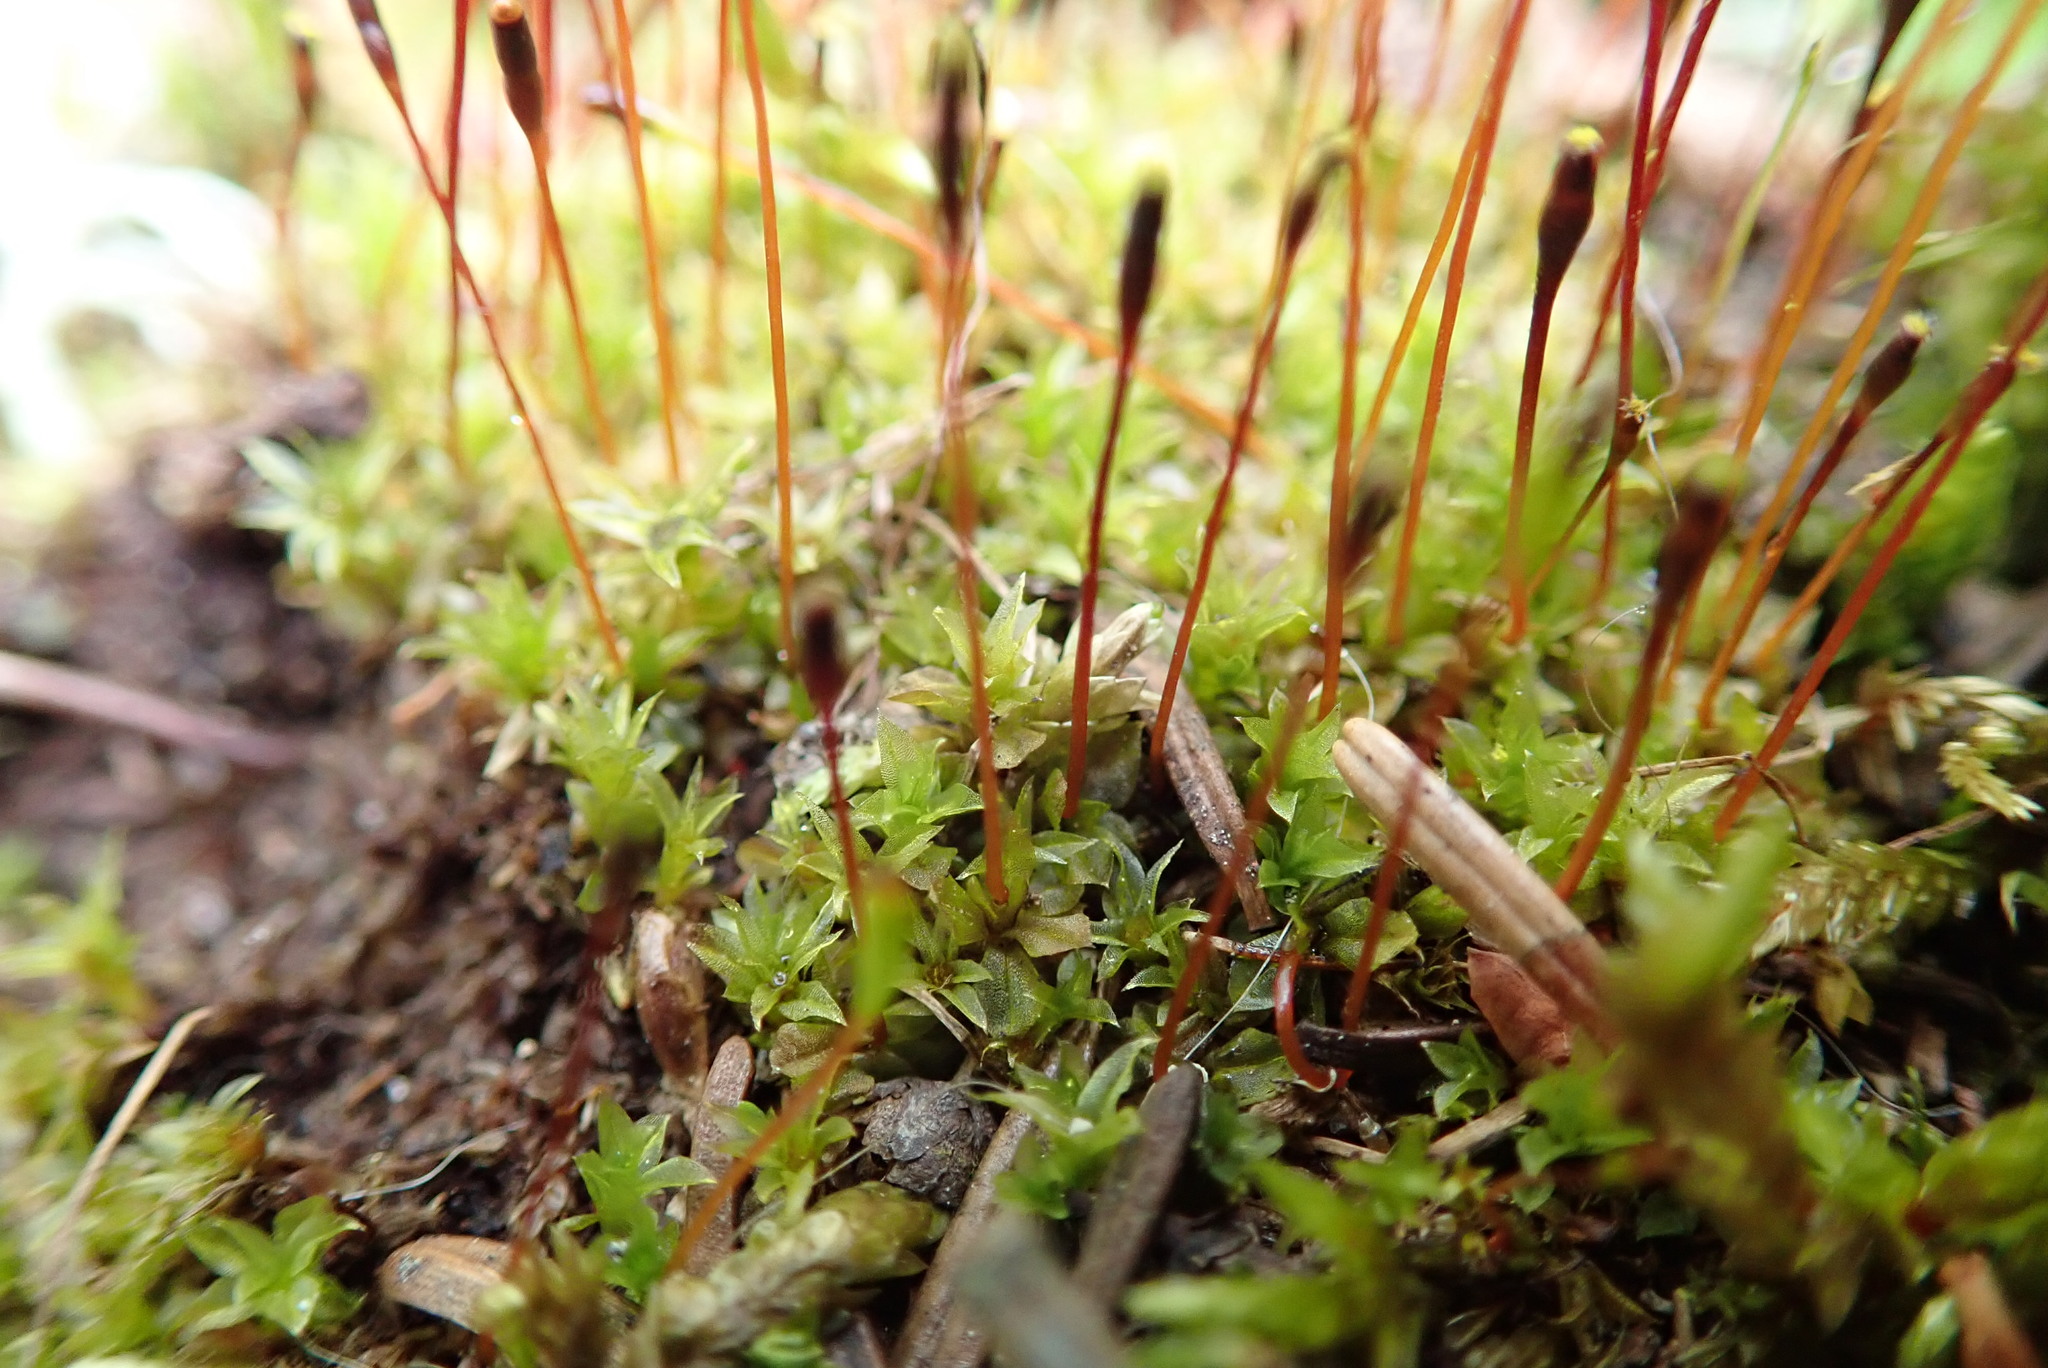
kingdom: Plantae
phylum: Bryophyta
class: Bryopsida
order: Splachnales
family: Splachnaceae
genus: Tayloria
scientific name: Tayloria serrata
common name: Serrate trumpet moss
